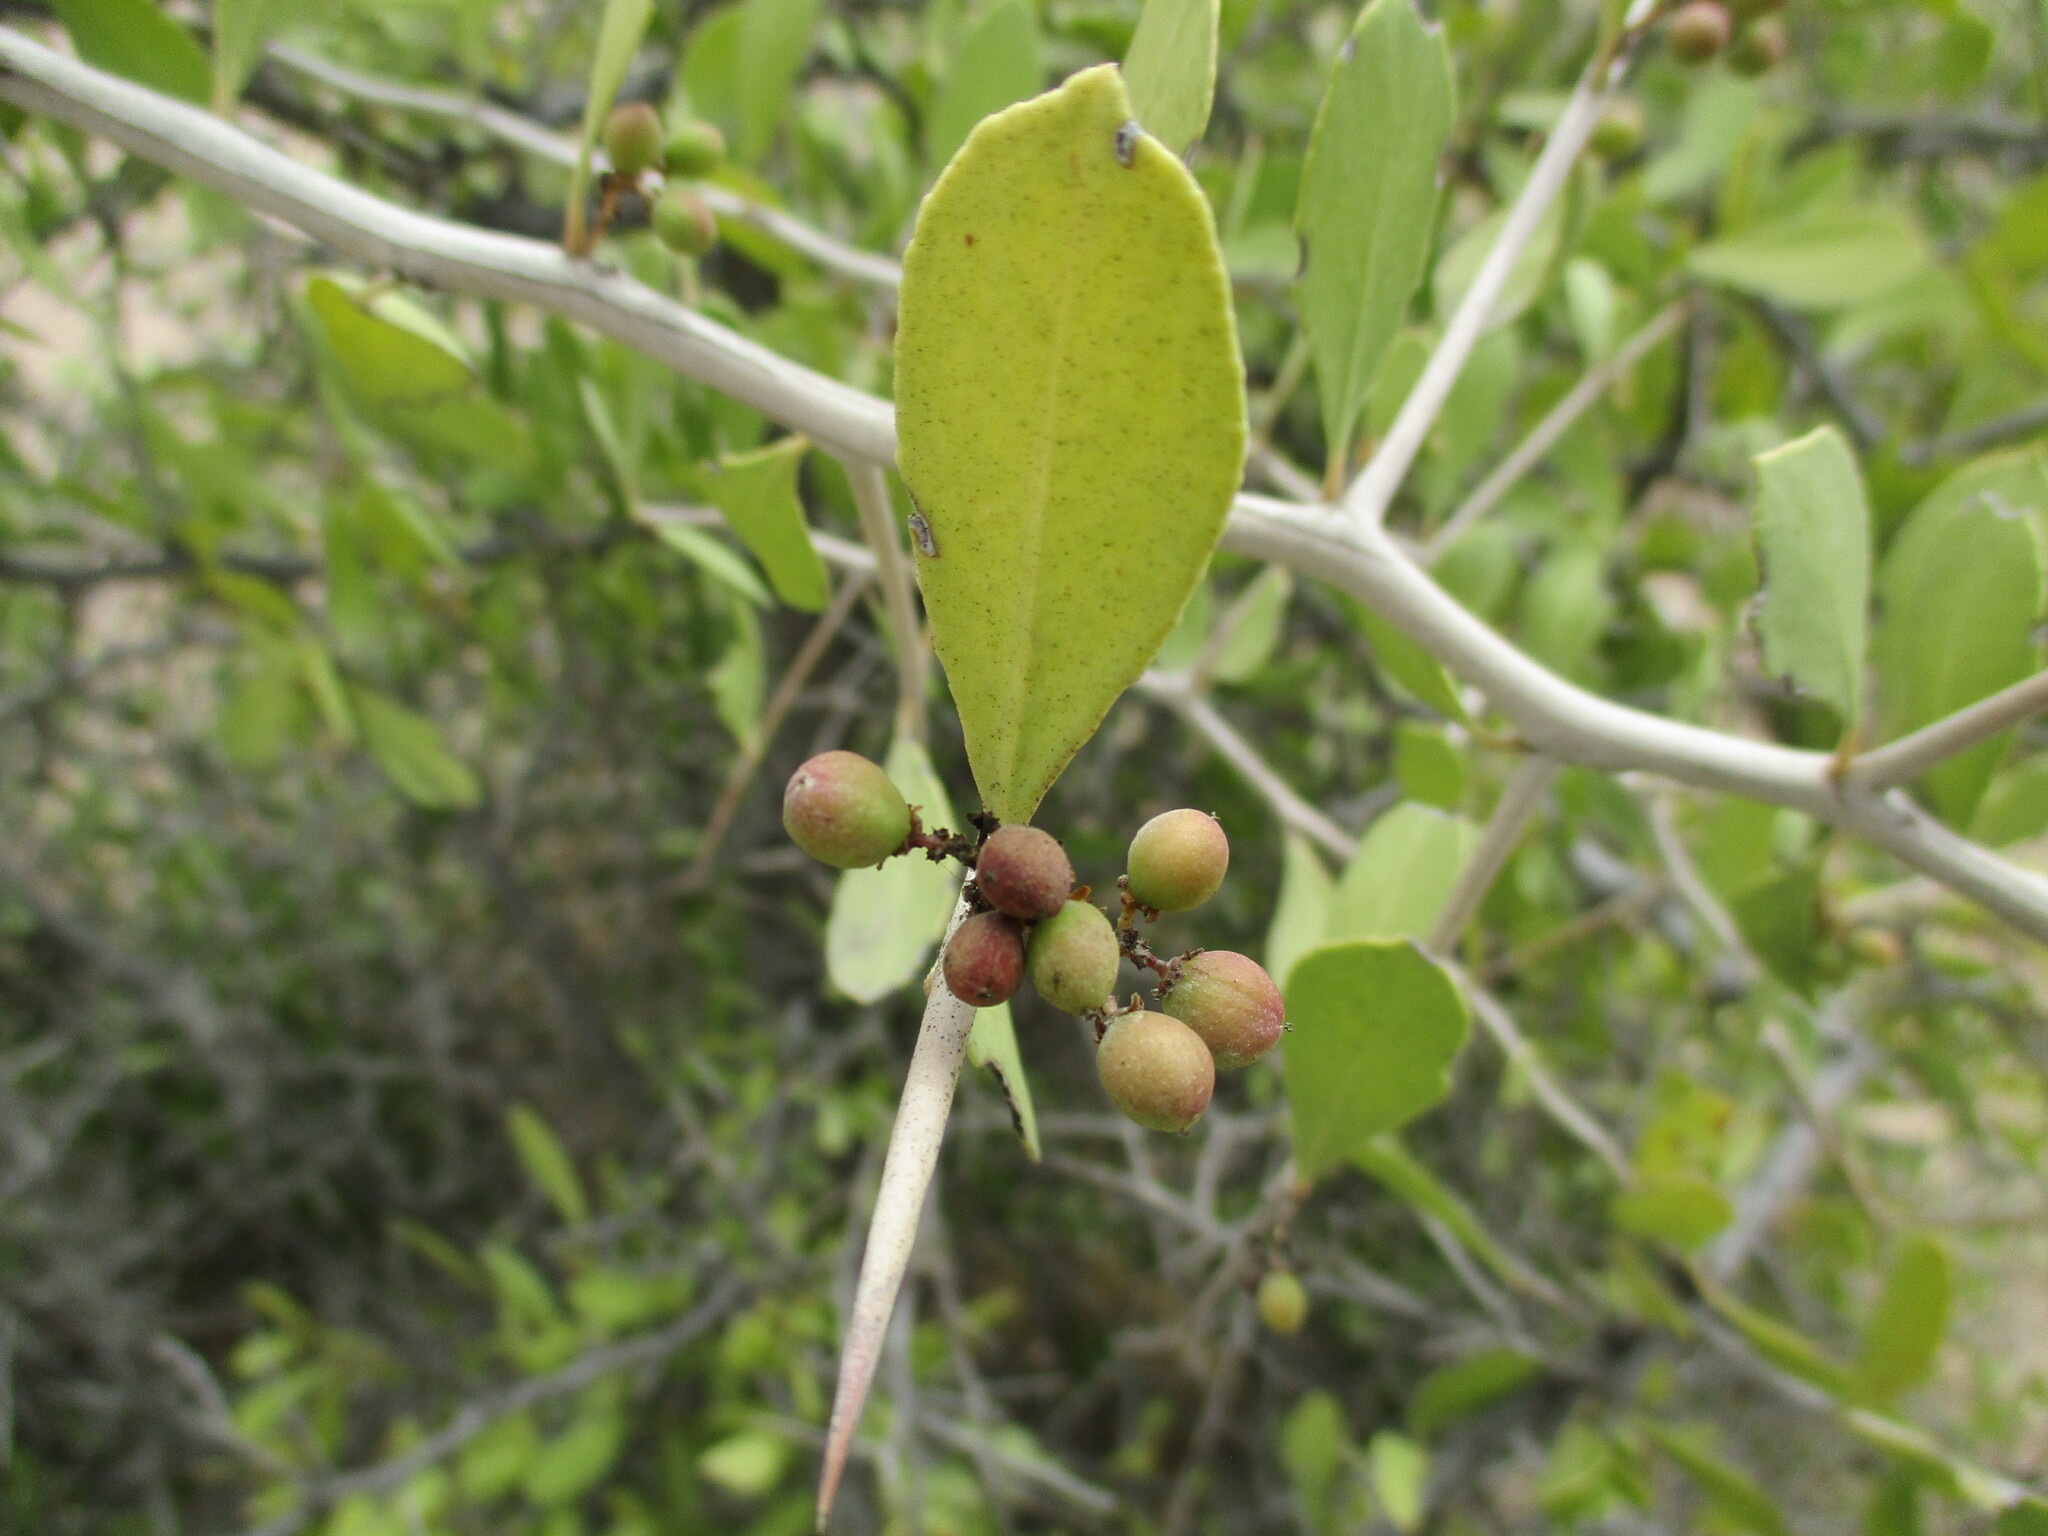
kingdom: Plantae
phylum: Tracheophyta
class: Magnoliopsida
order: Celastrales
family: Celastraceae
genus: Gymnosporia
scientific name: Gymnosporia senegalensis
